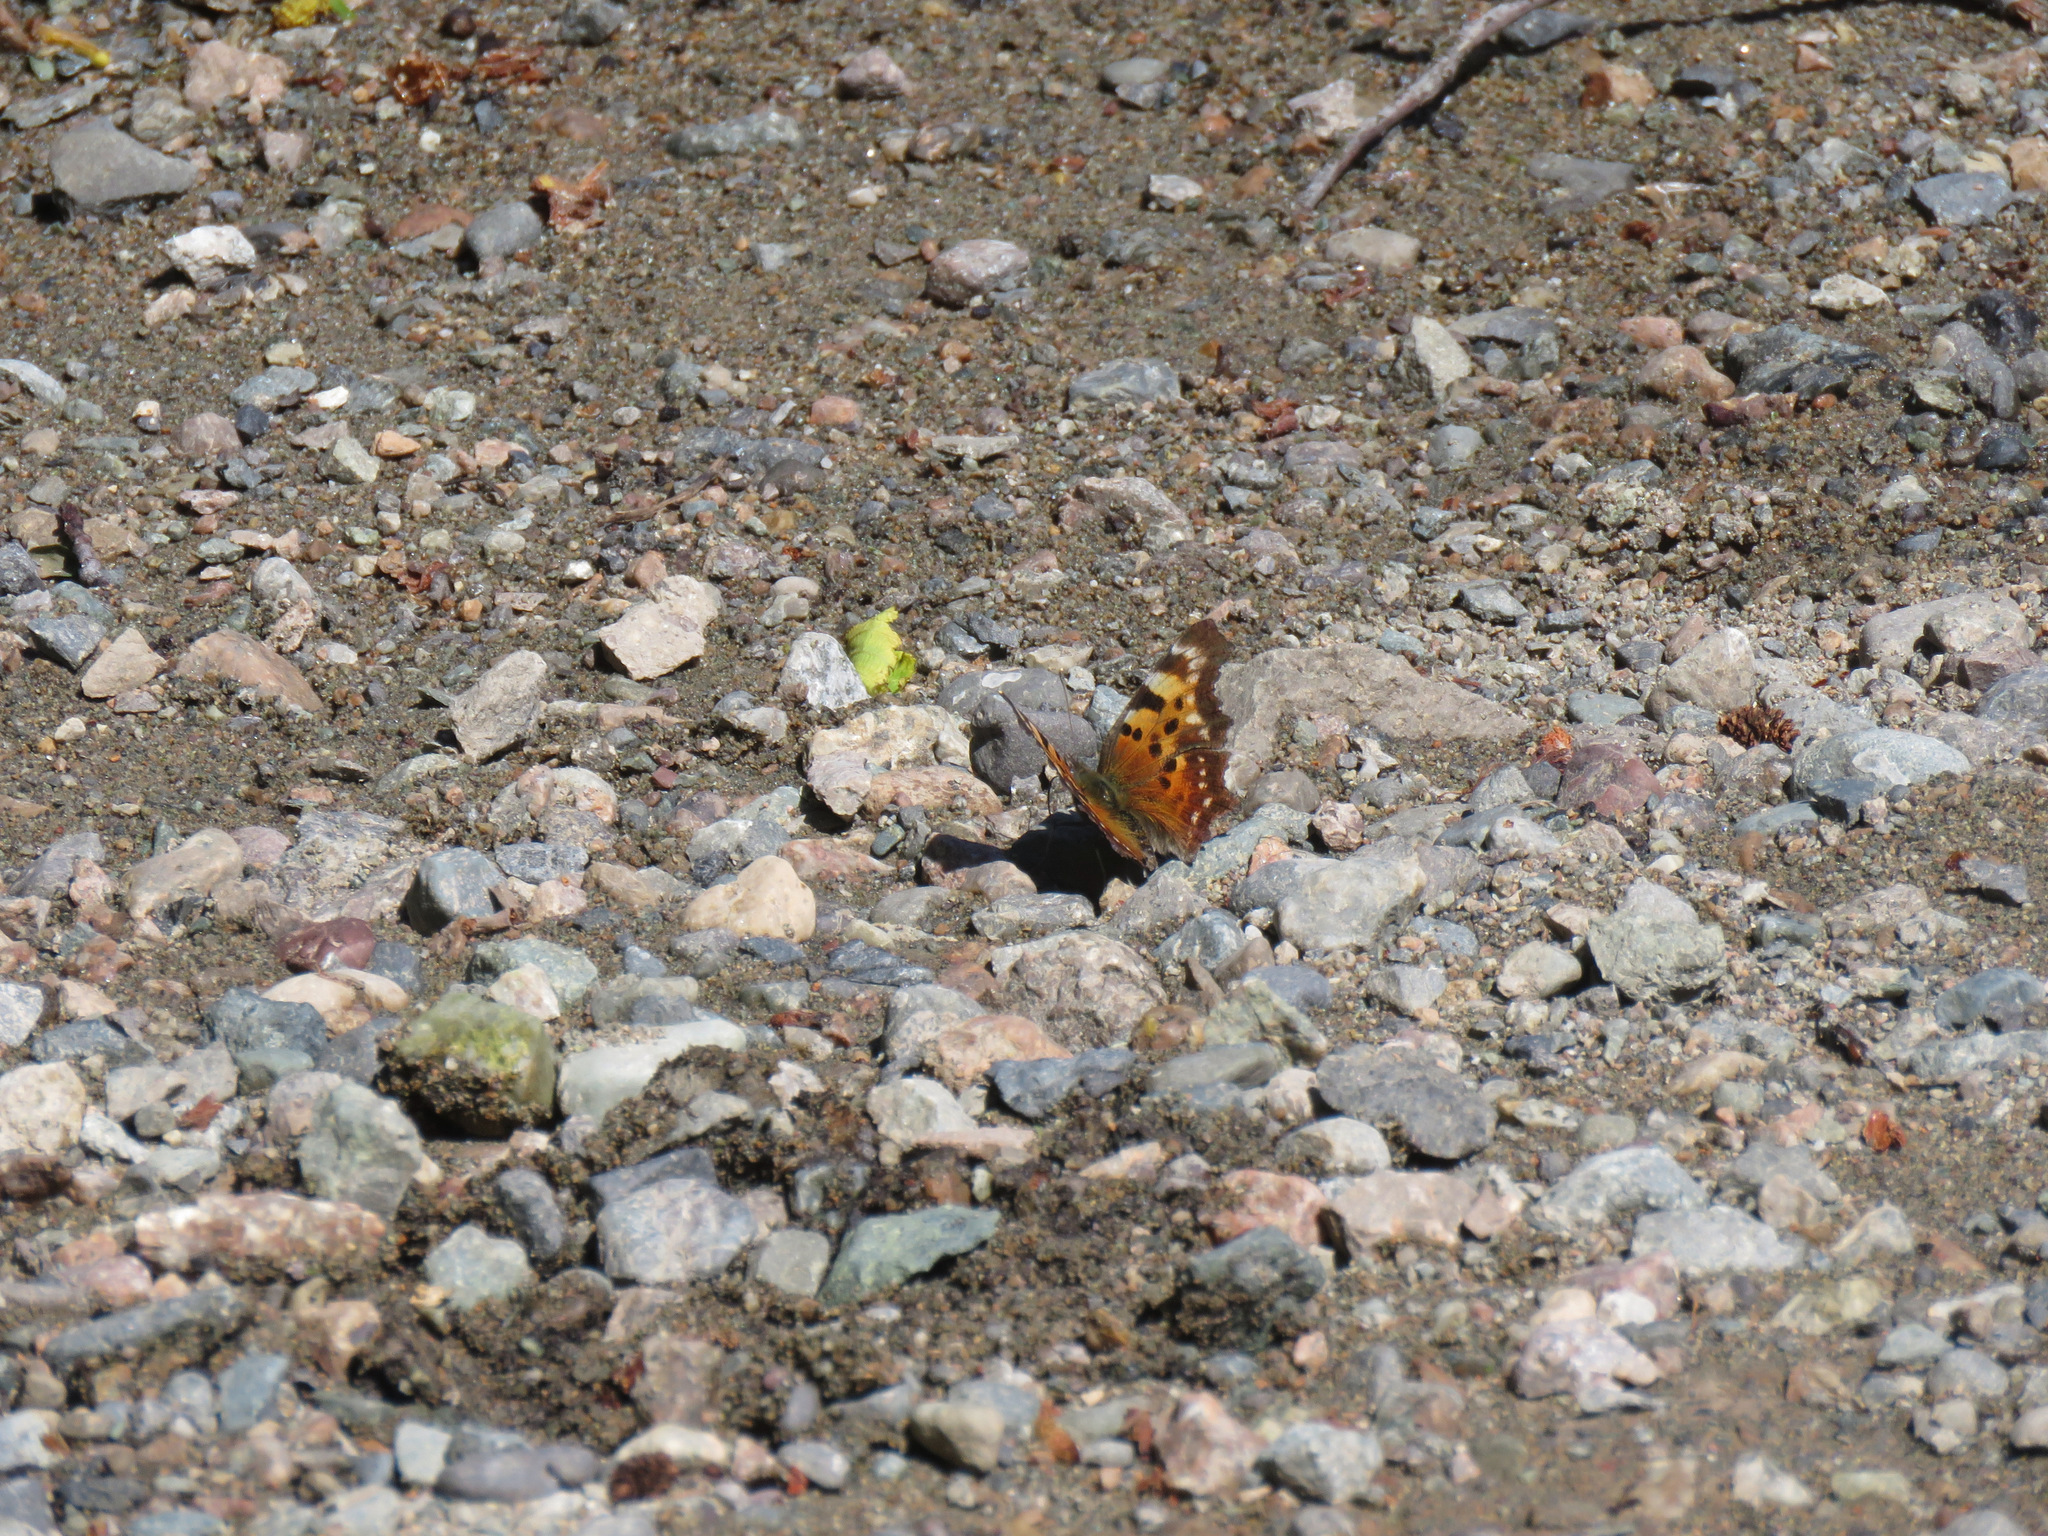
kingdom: Animalia
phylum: Arthropoda
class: Insecta
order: Lepidoptera
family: Nymphalidae
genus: Polygonia
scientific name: Polygonia faunus
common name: Green comma
